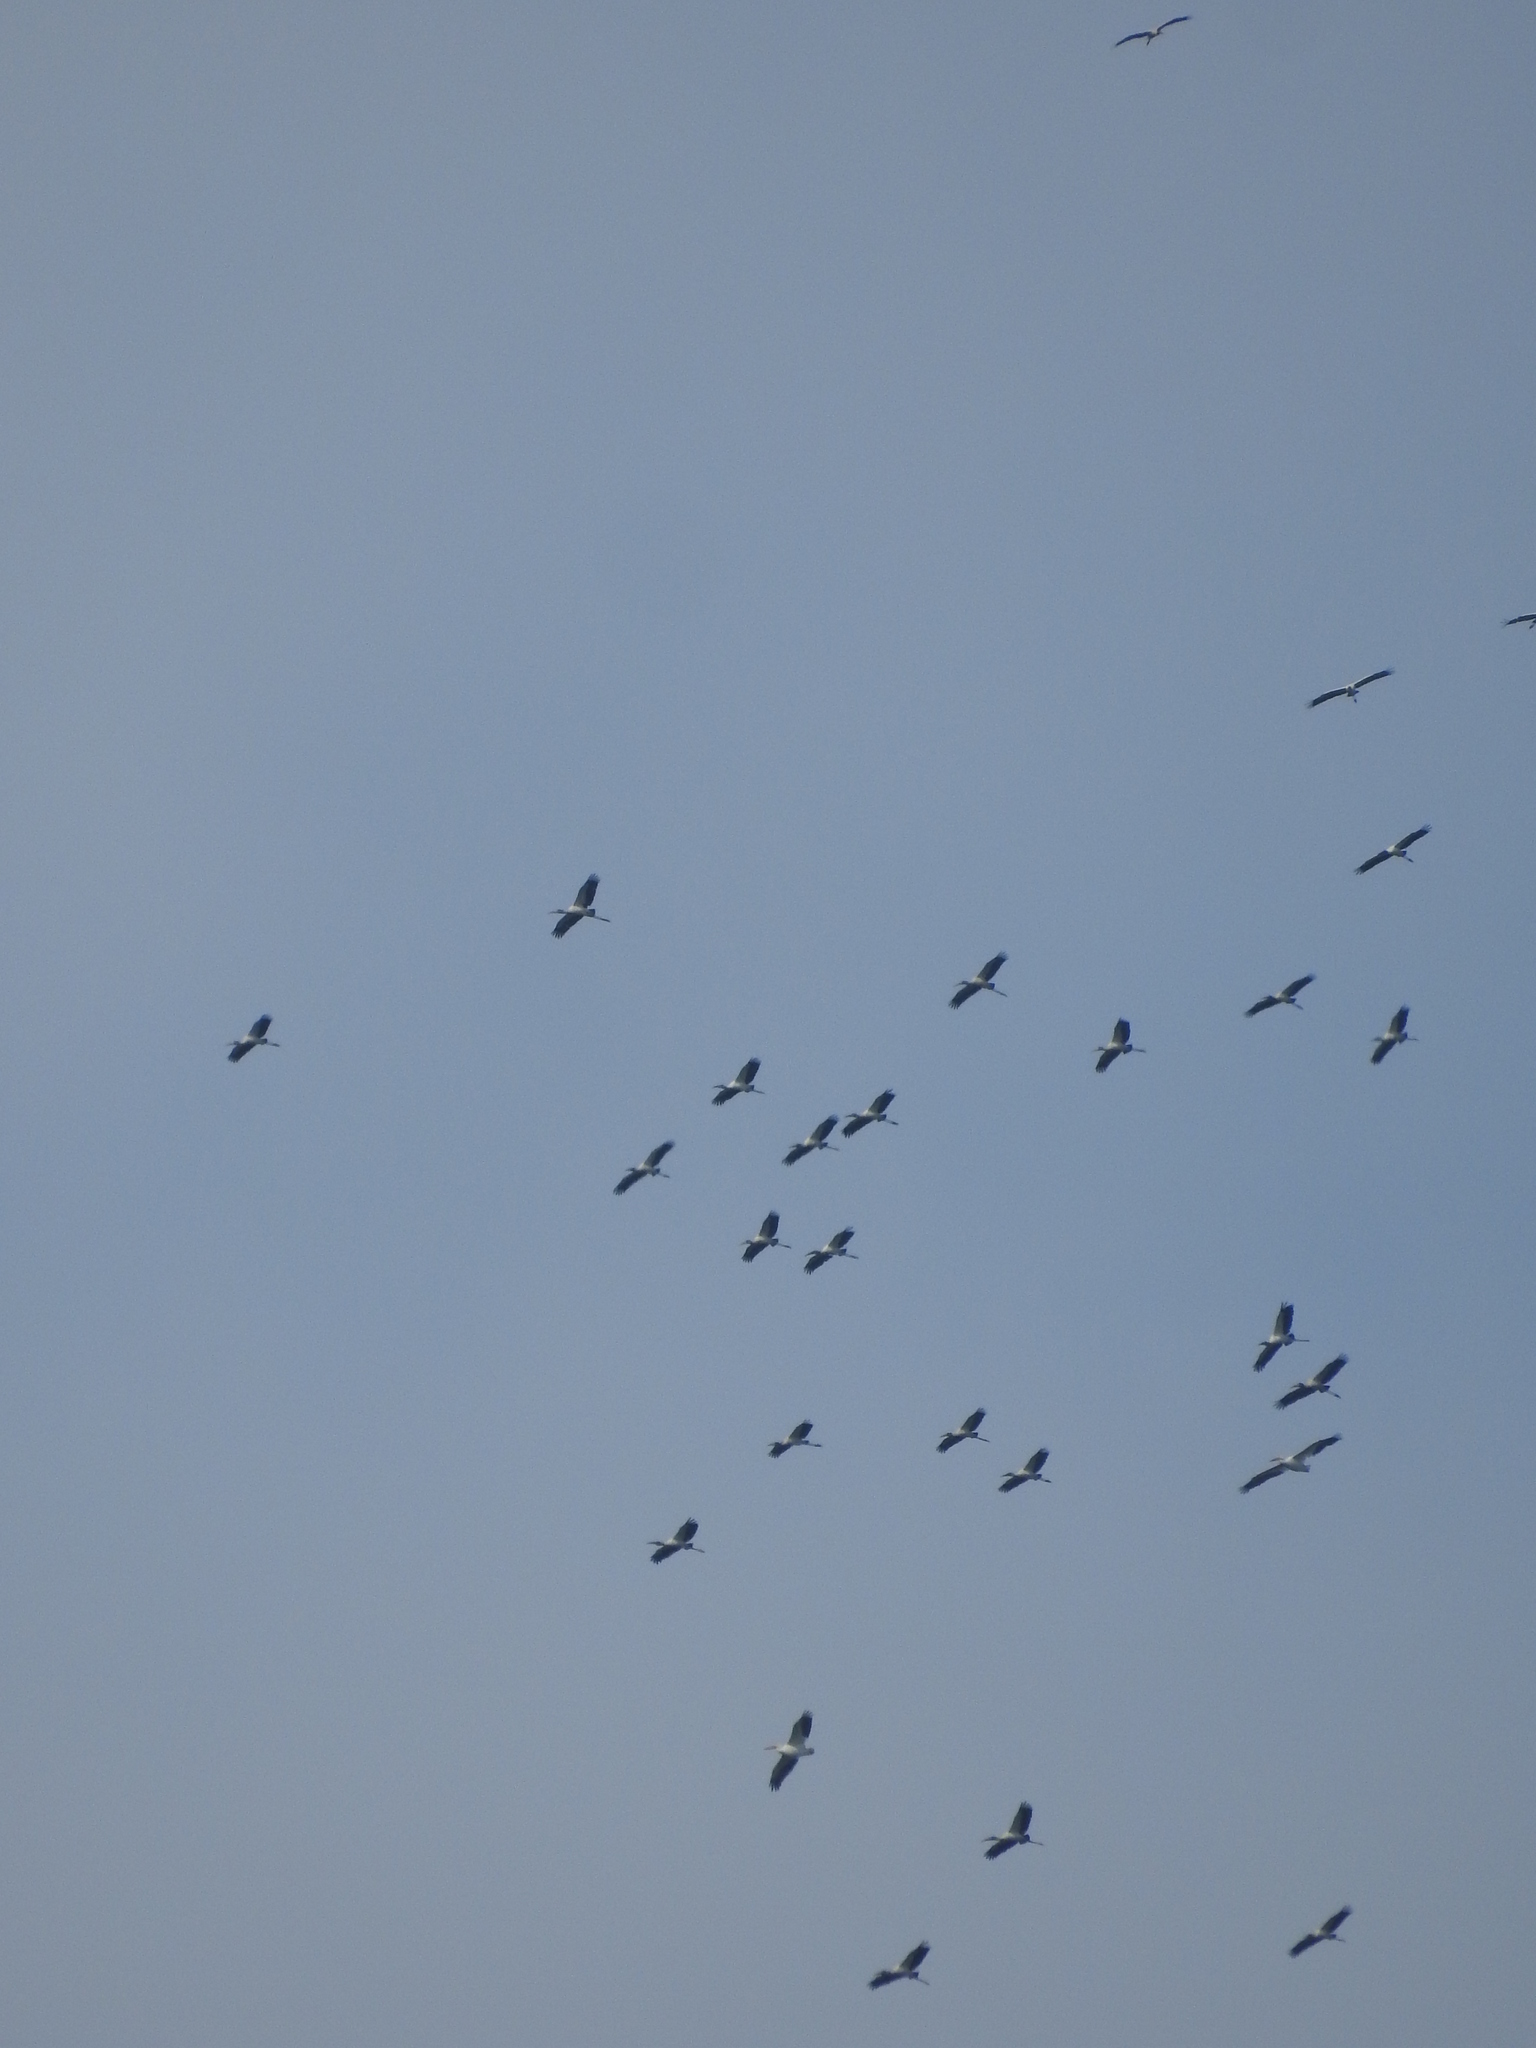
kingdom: Animalia
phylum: Chordata
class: Aves
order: Ciconiiformes
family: Ciconiidae
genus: Mycteria
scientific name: Mycteria americana
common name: Wood stork
